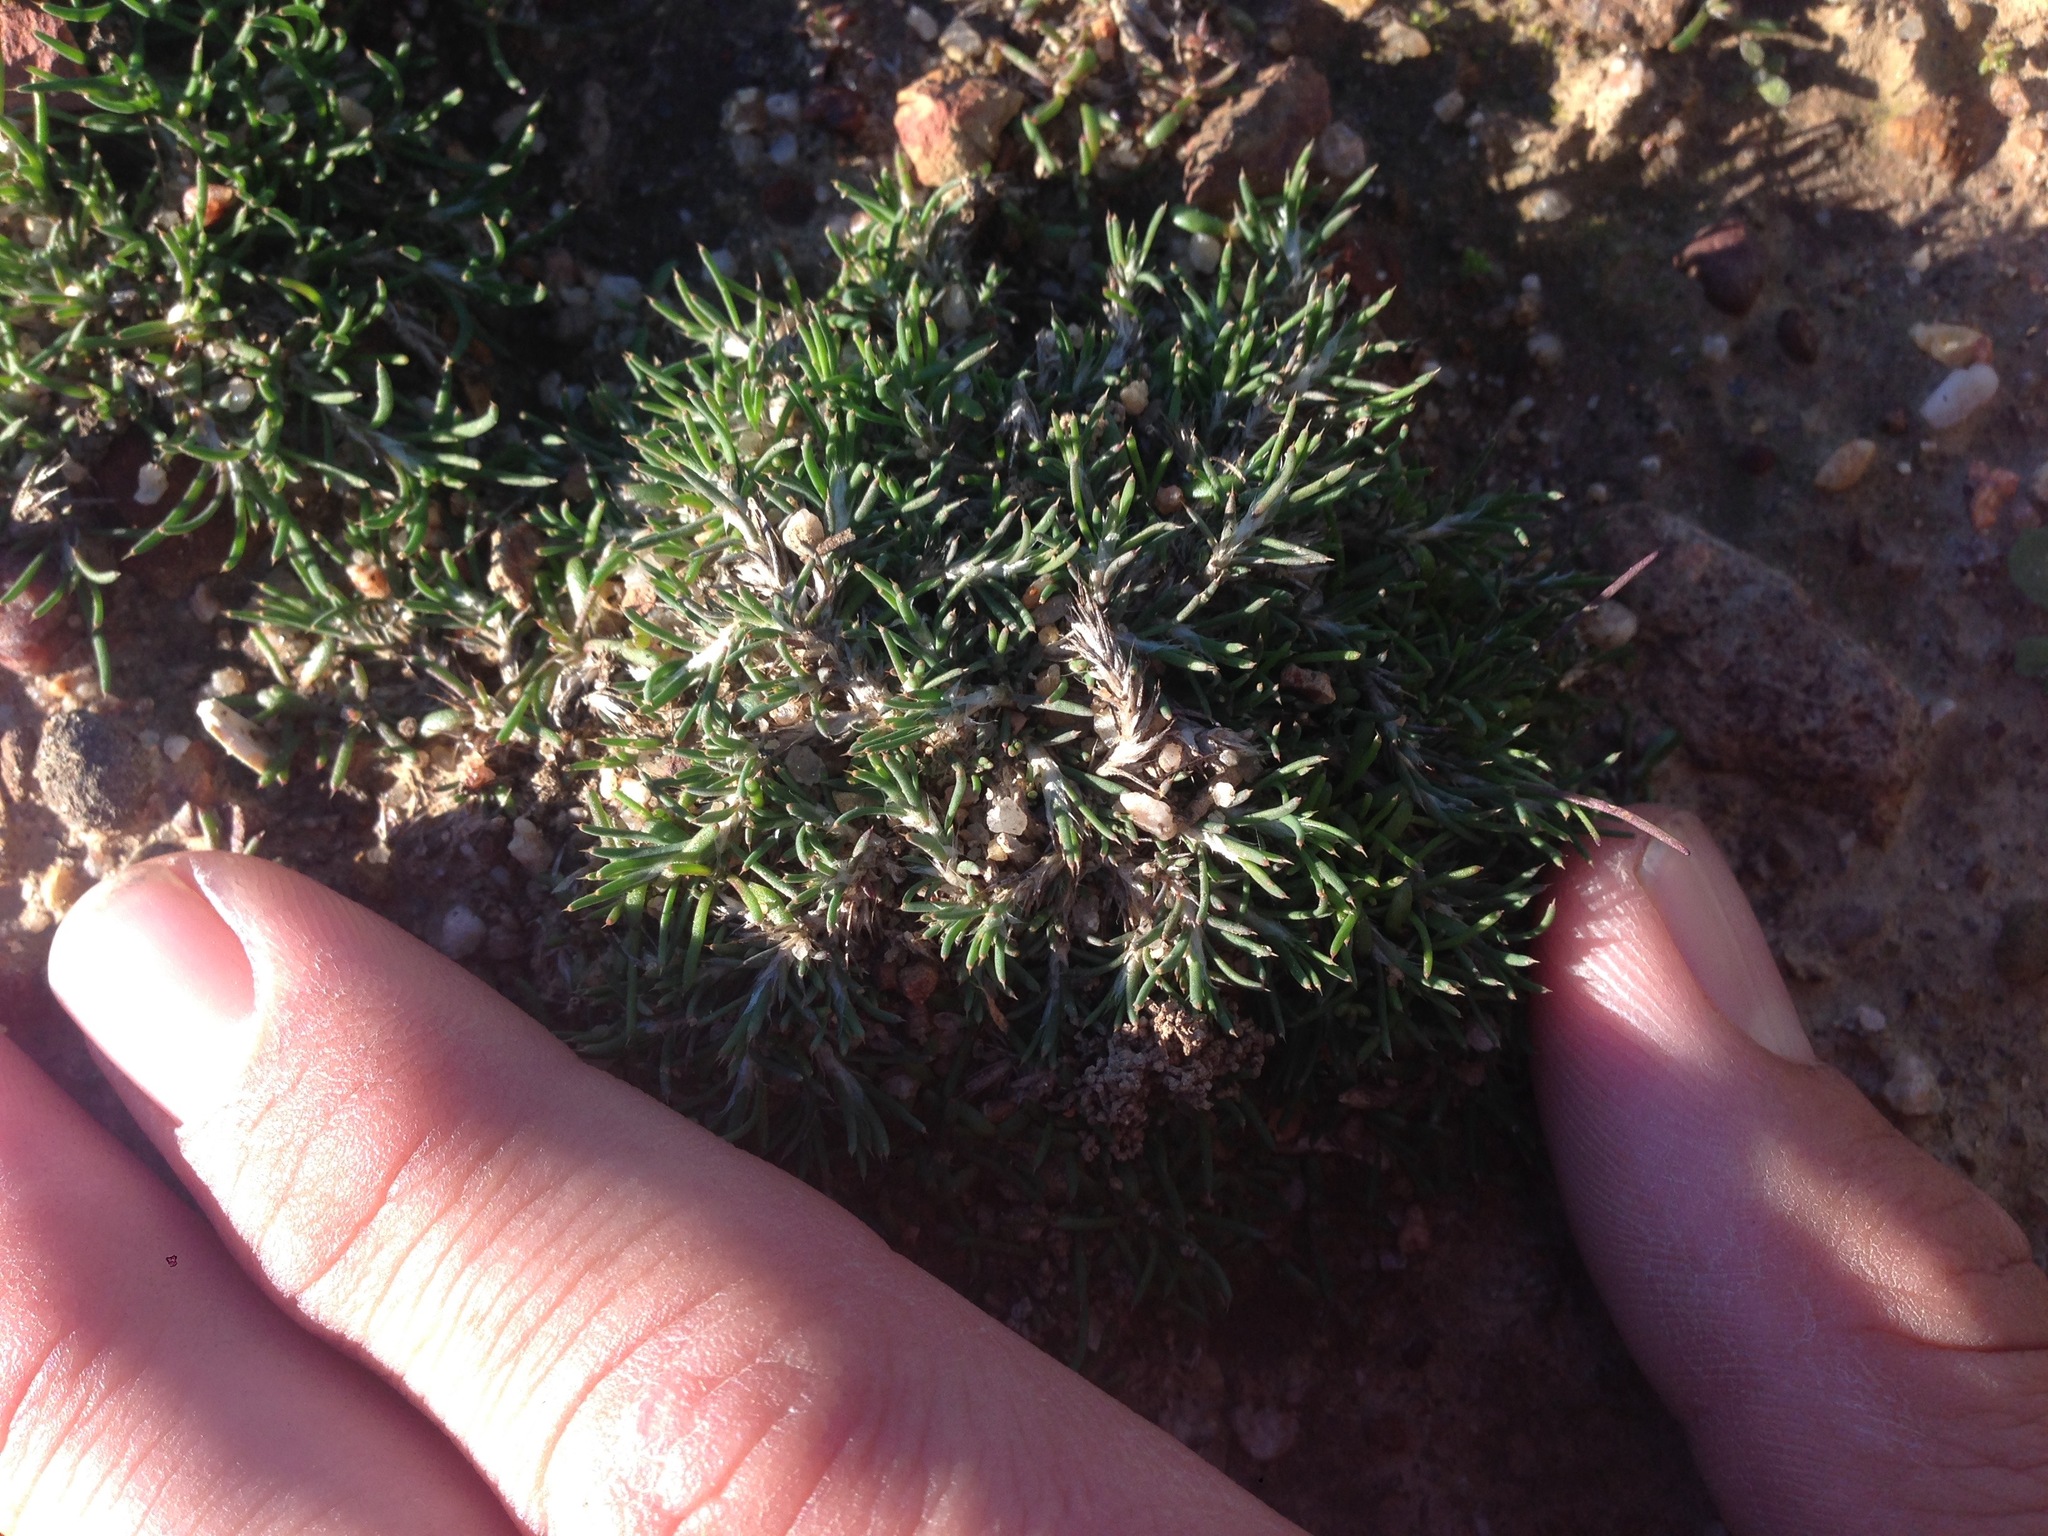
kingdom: Plantae
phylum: Tracheophyta
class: Magnoliopsida
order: Caryophyllales
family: Caryophyllaceae
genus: Cardionema
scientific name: Cardionema ramosissima
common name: Sandcarpet
